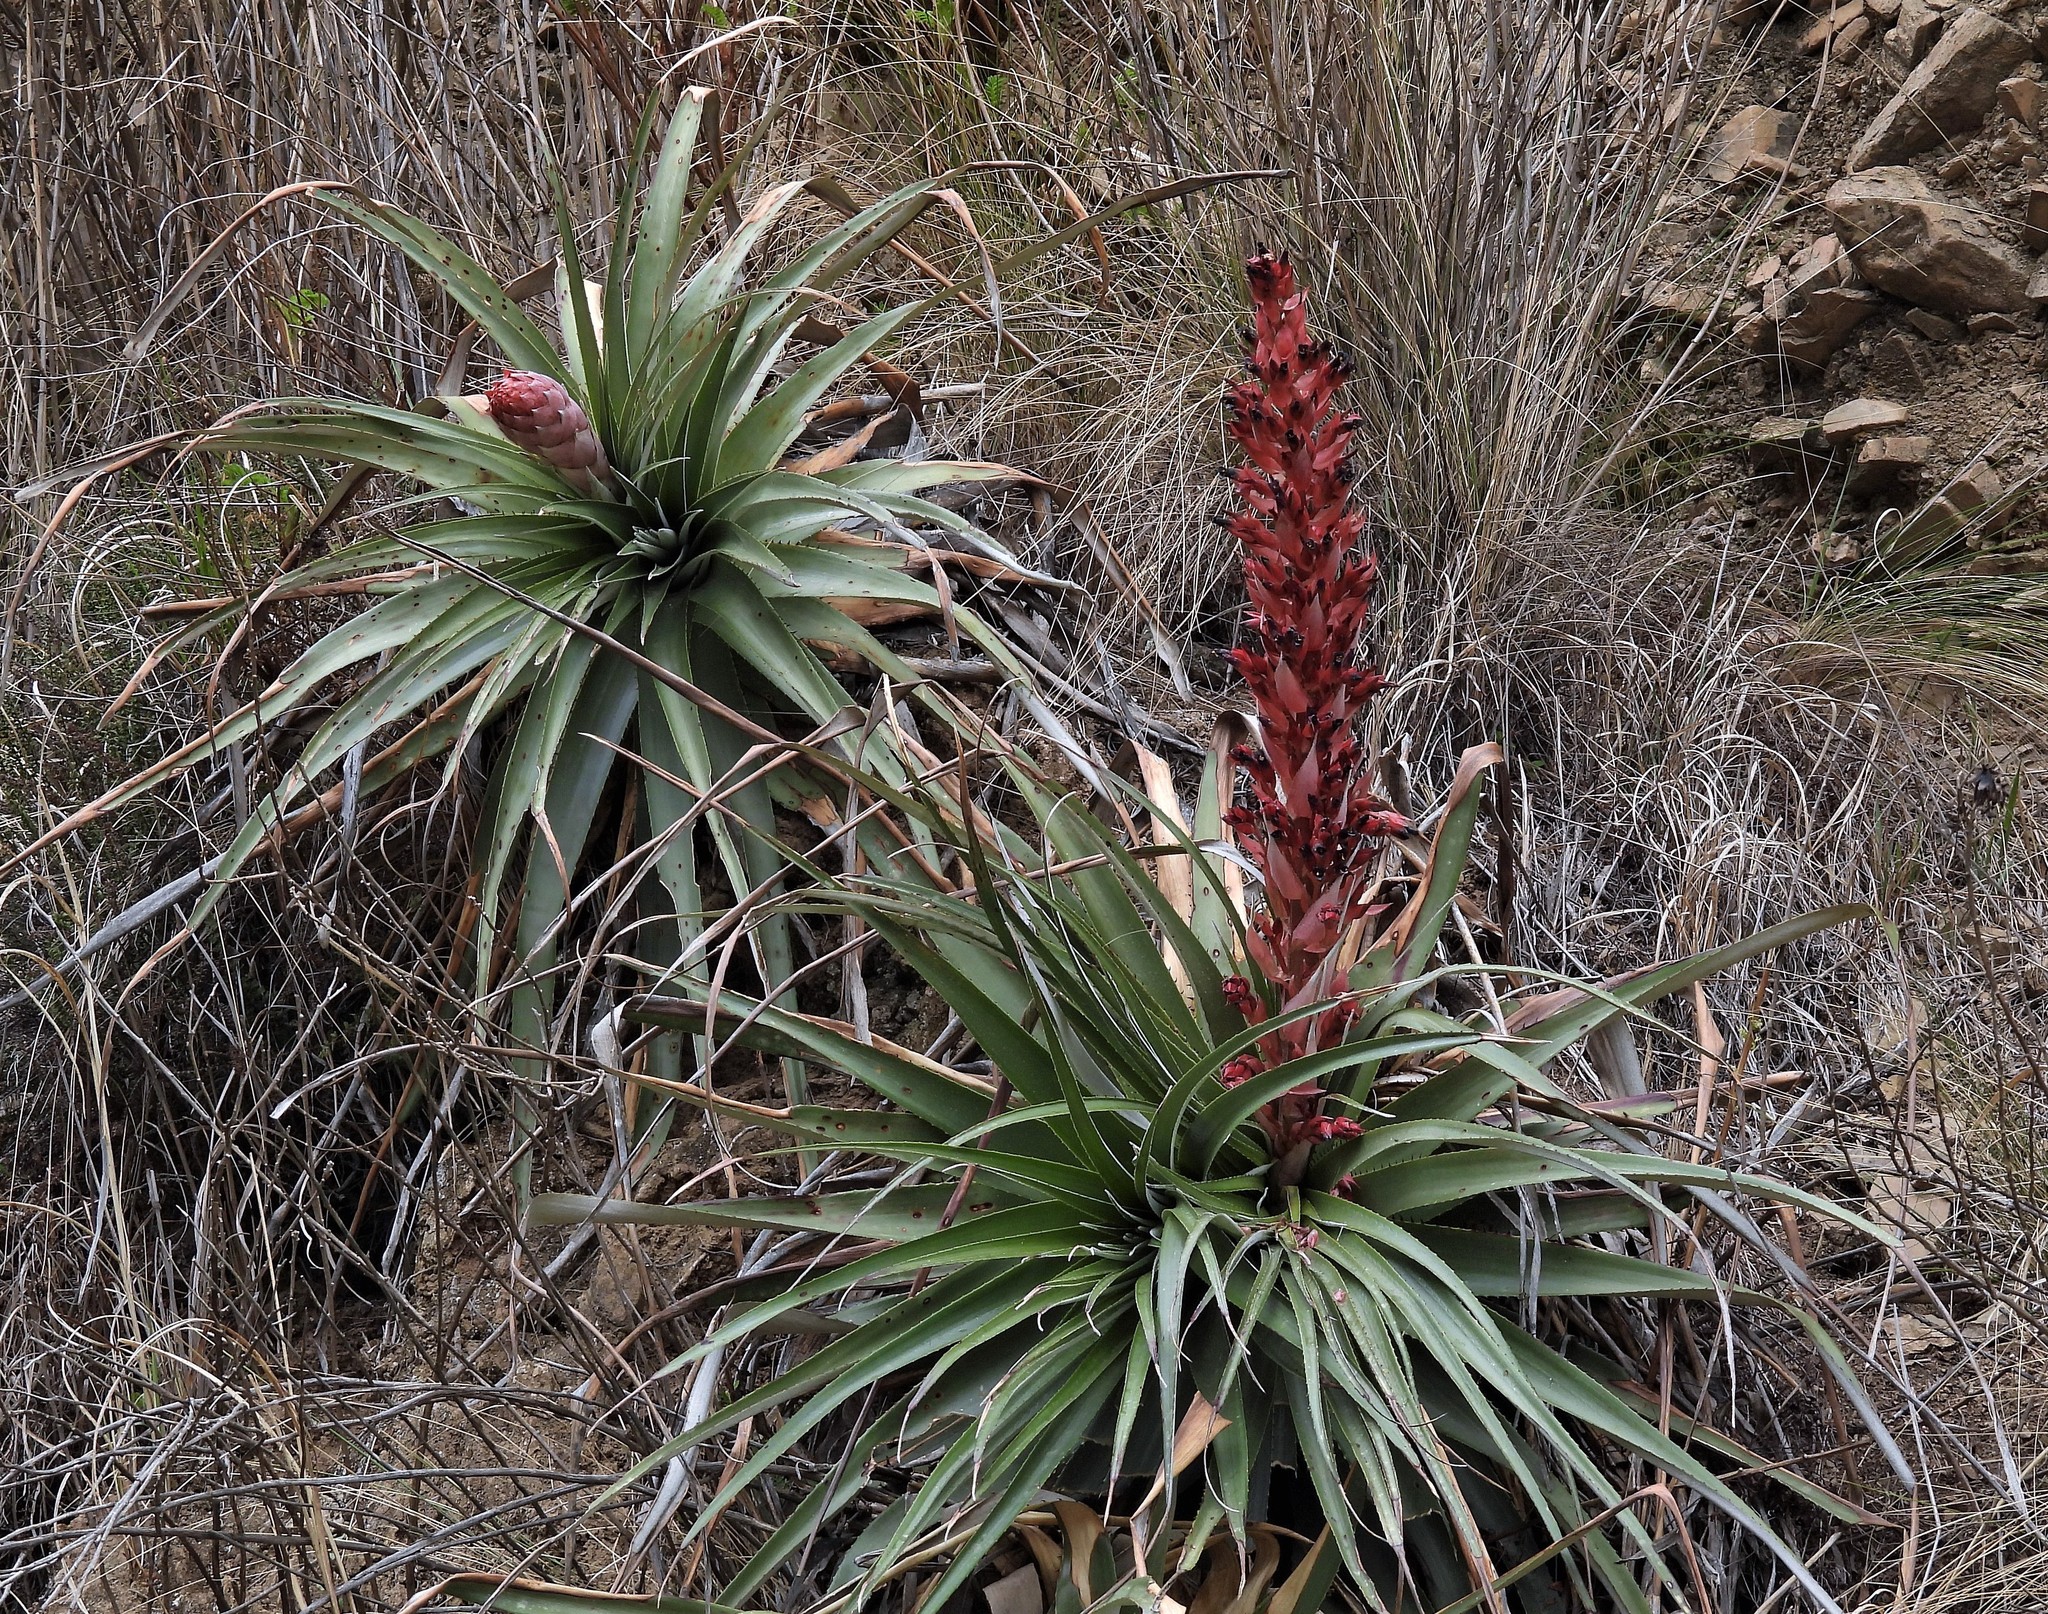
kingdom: Plantae
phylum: Tracheophyta
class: Liliopsida
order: Poales
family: Bromeliaceae
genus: Puya
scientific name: Puya dyckioides
